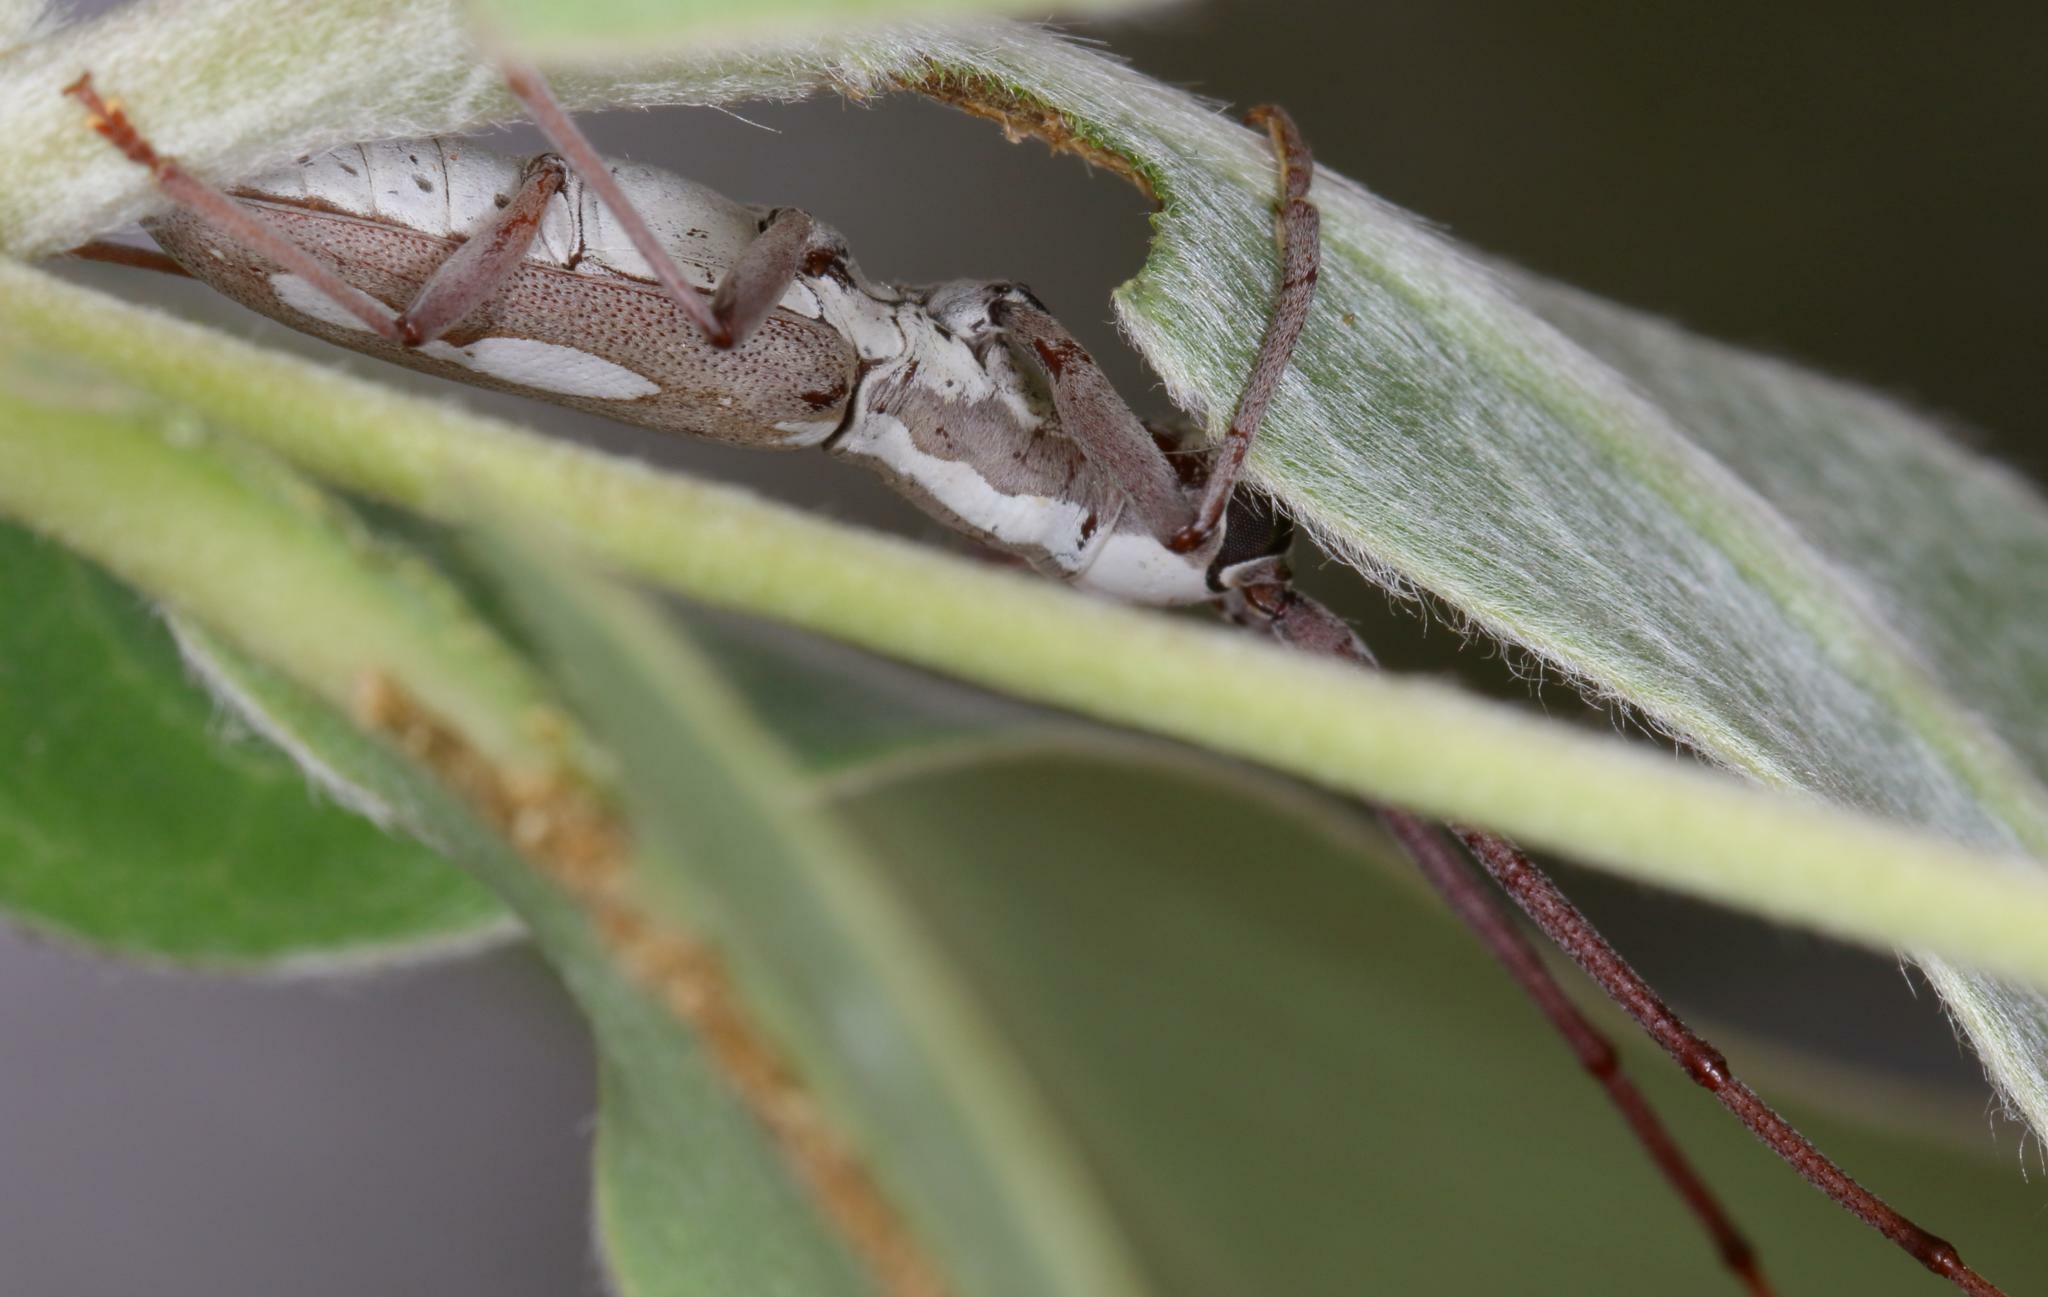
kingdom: Animalia
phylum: Arthropoda
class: Insecta
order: Coleoptera
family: Cerambycidae
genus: Olenecamptus
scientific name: Olenecamptus tessellata
